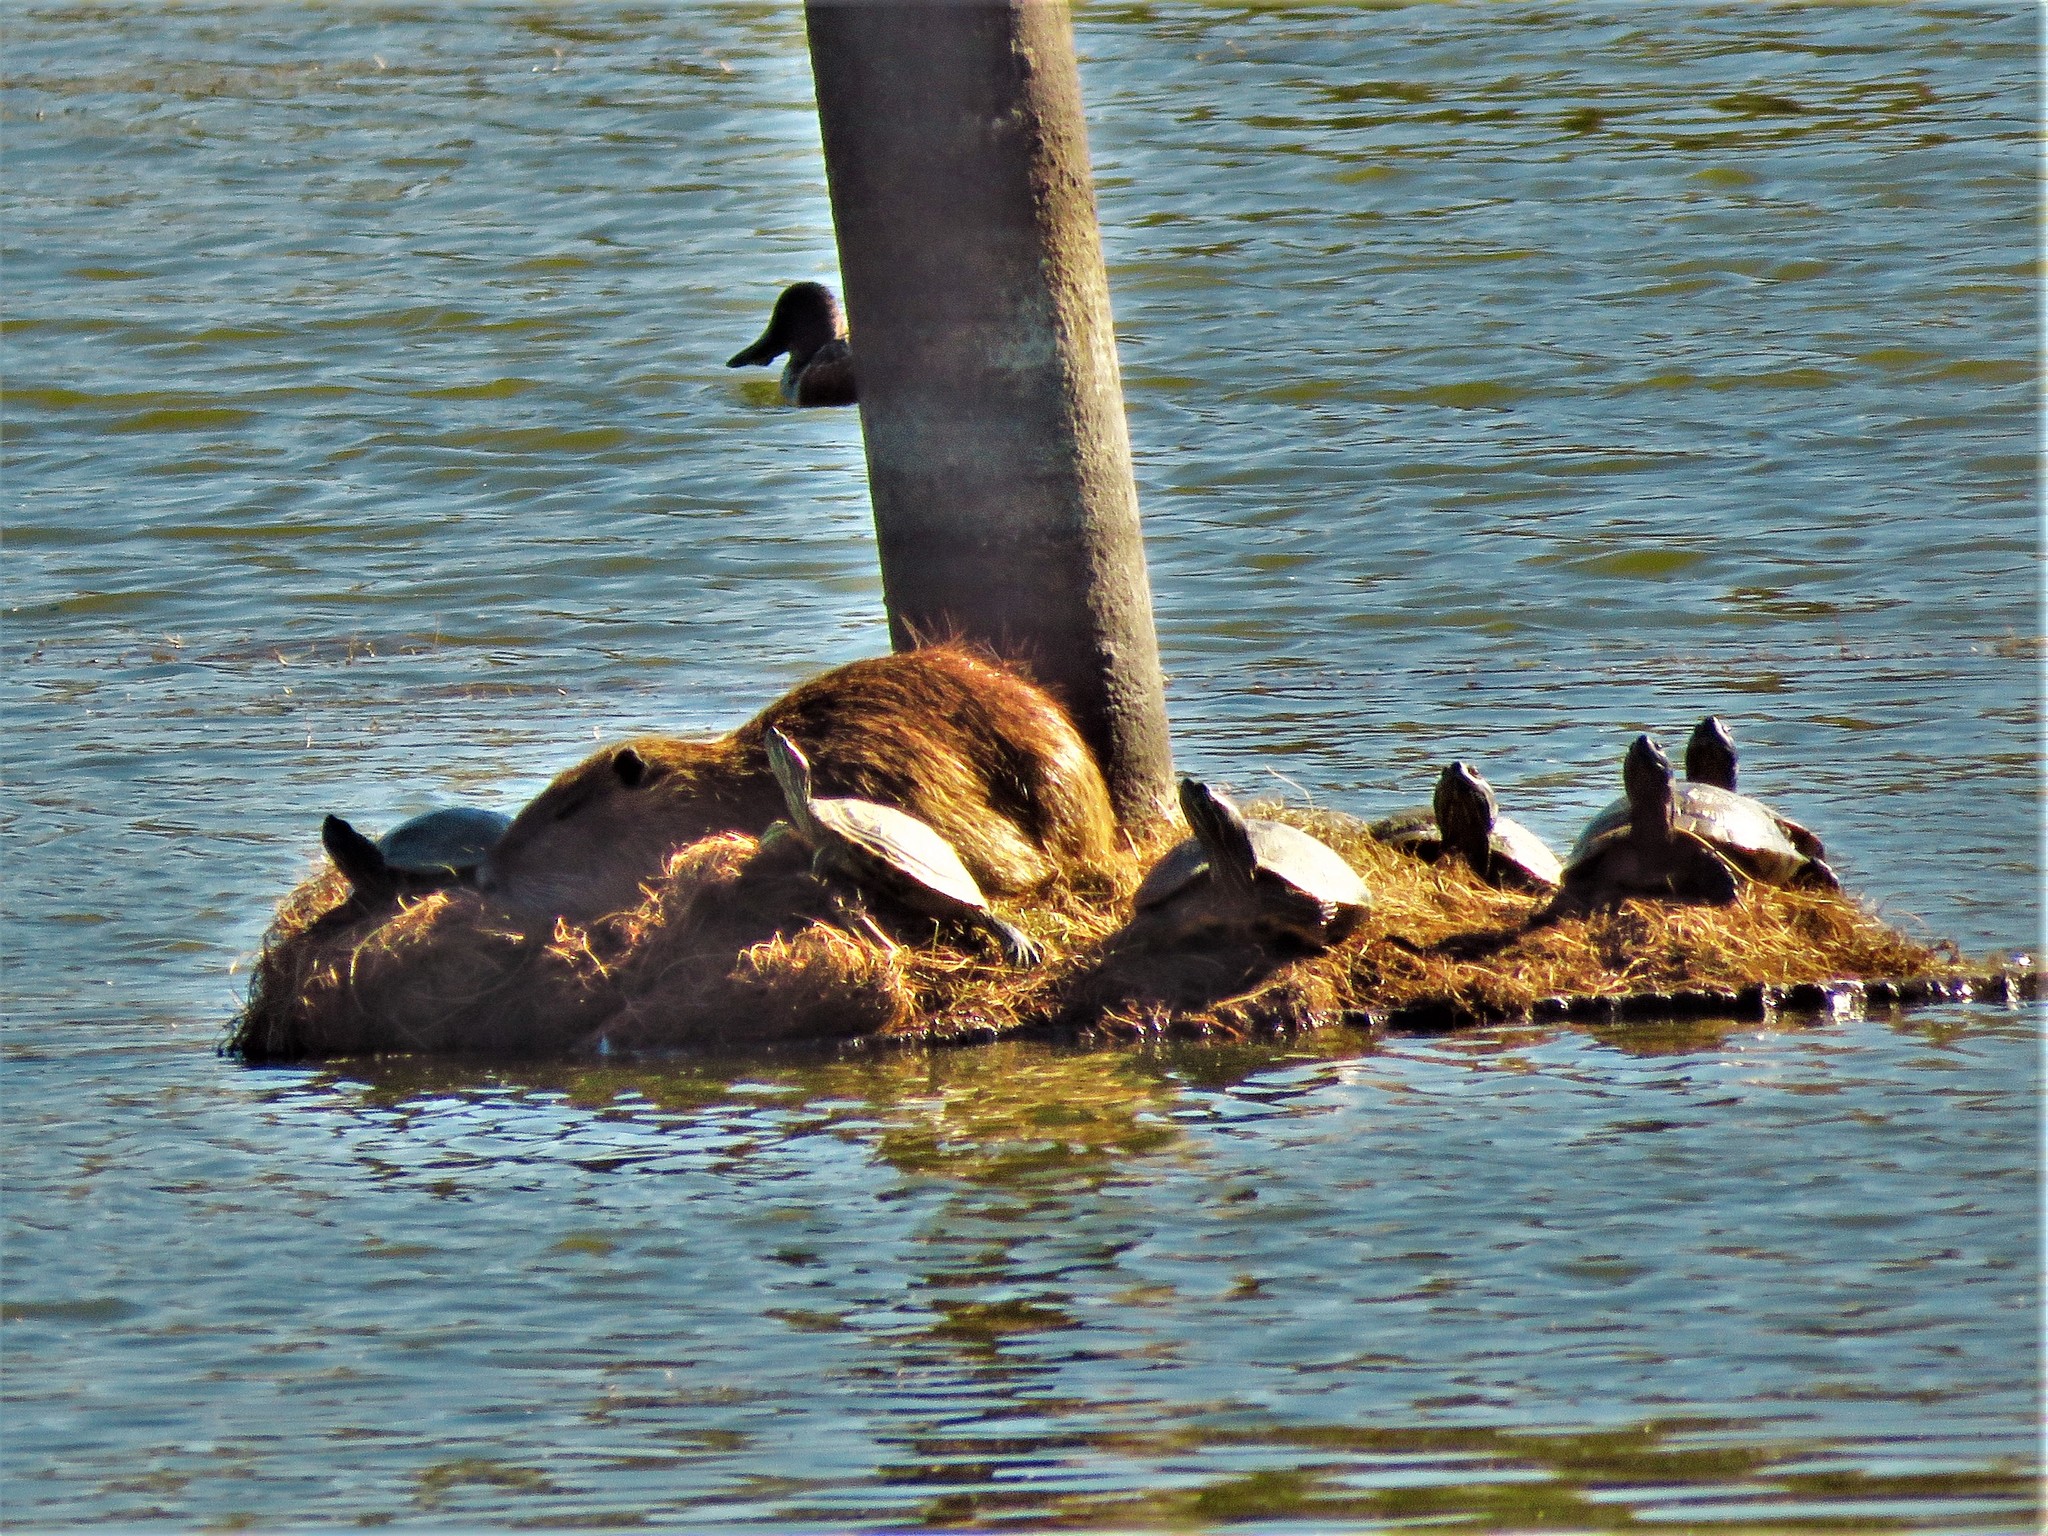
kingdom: Animalia
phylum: Chordata
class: Mammalia
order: Rodentia
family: Myocastoridae
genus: Myocastor
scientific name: Myocastor coypus
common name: Coypu
